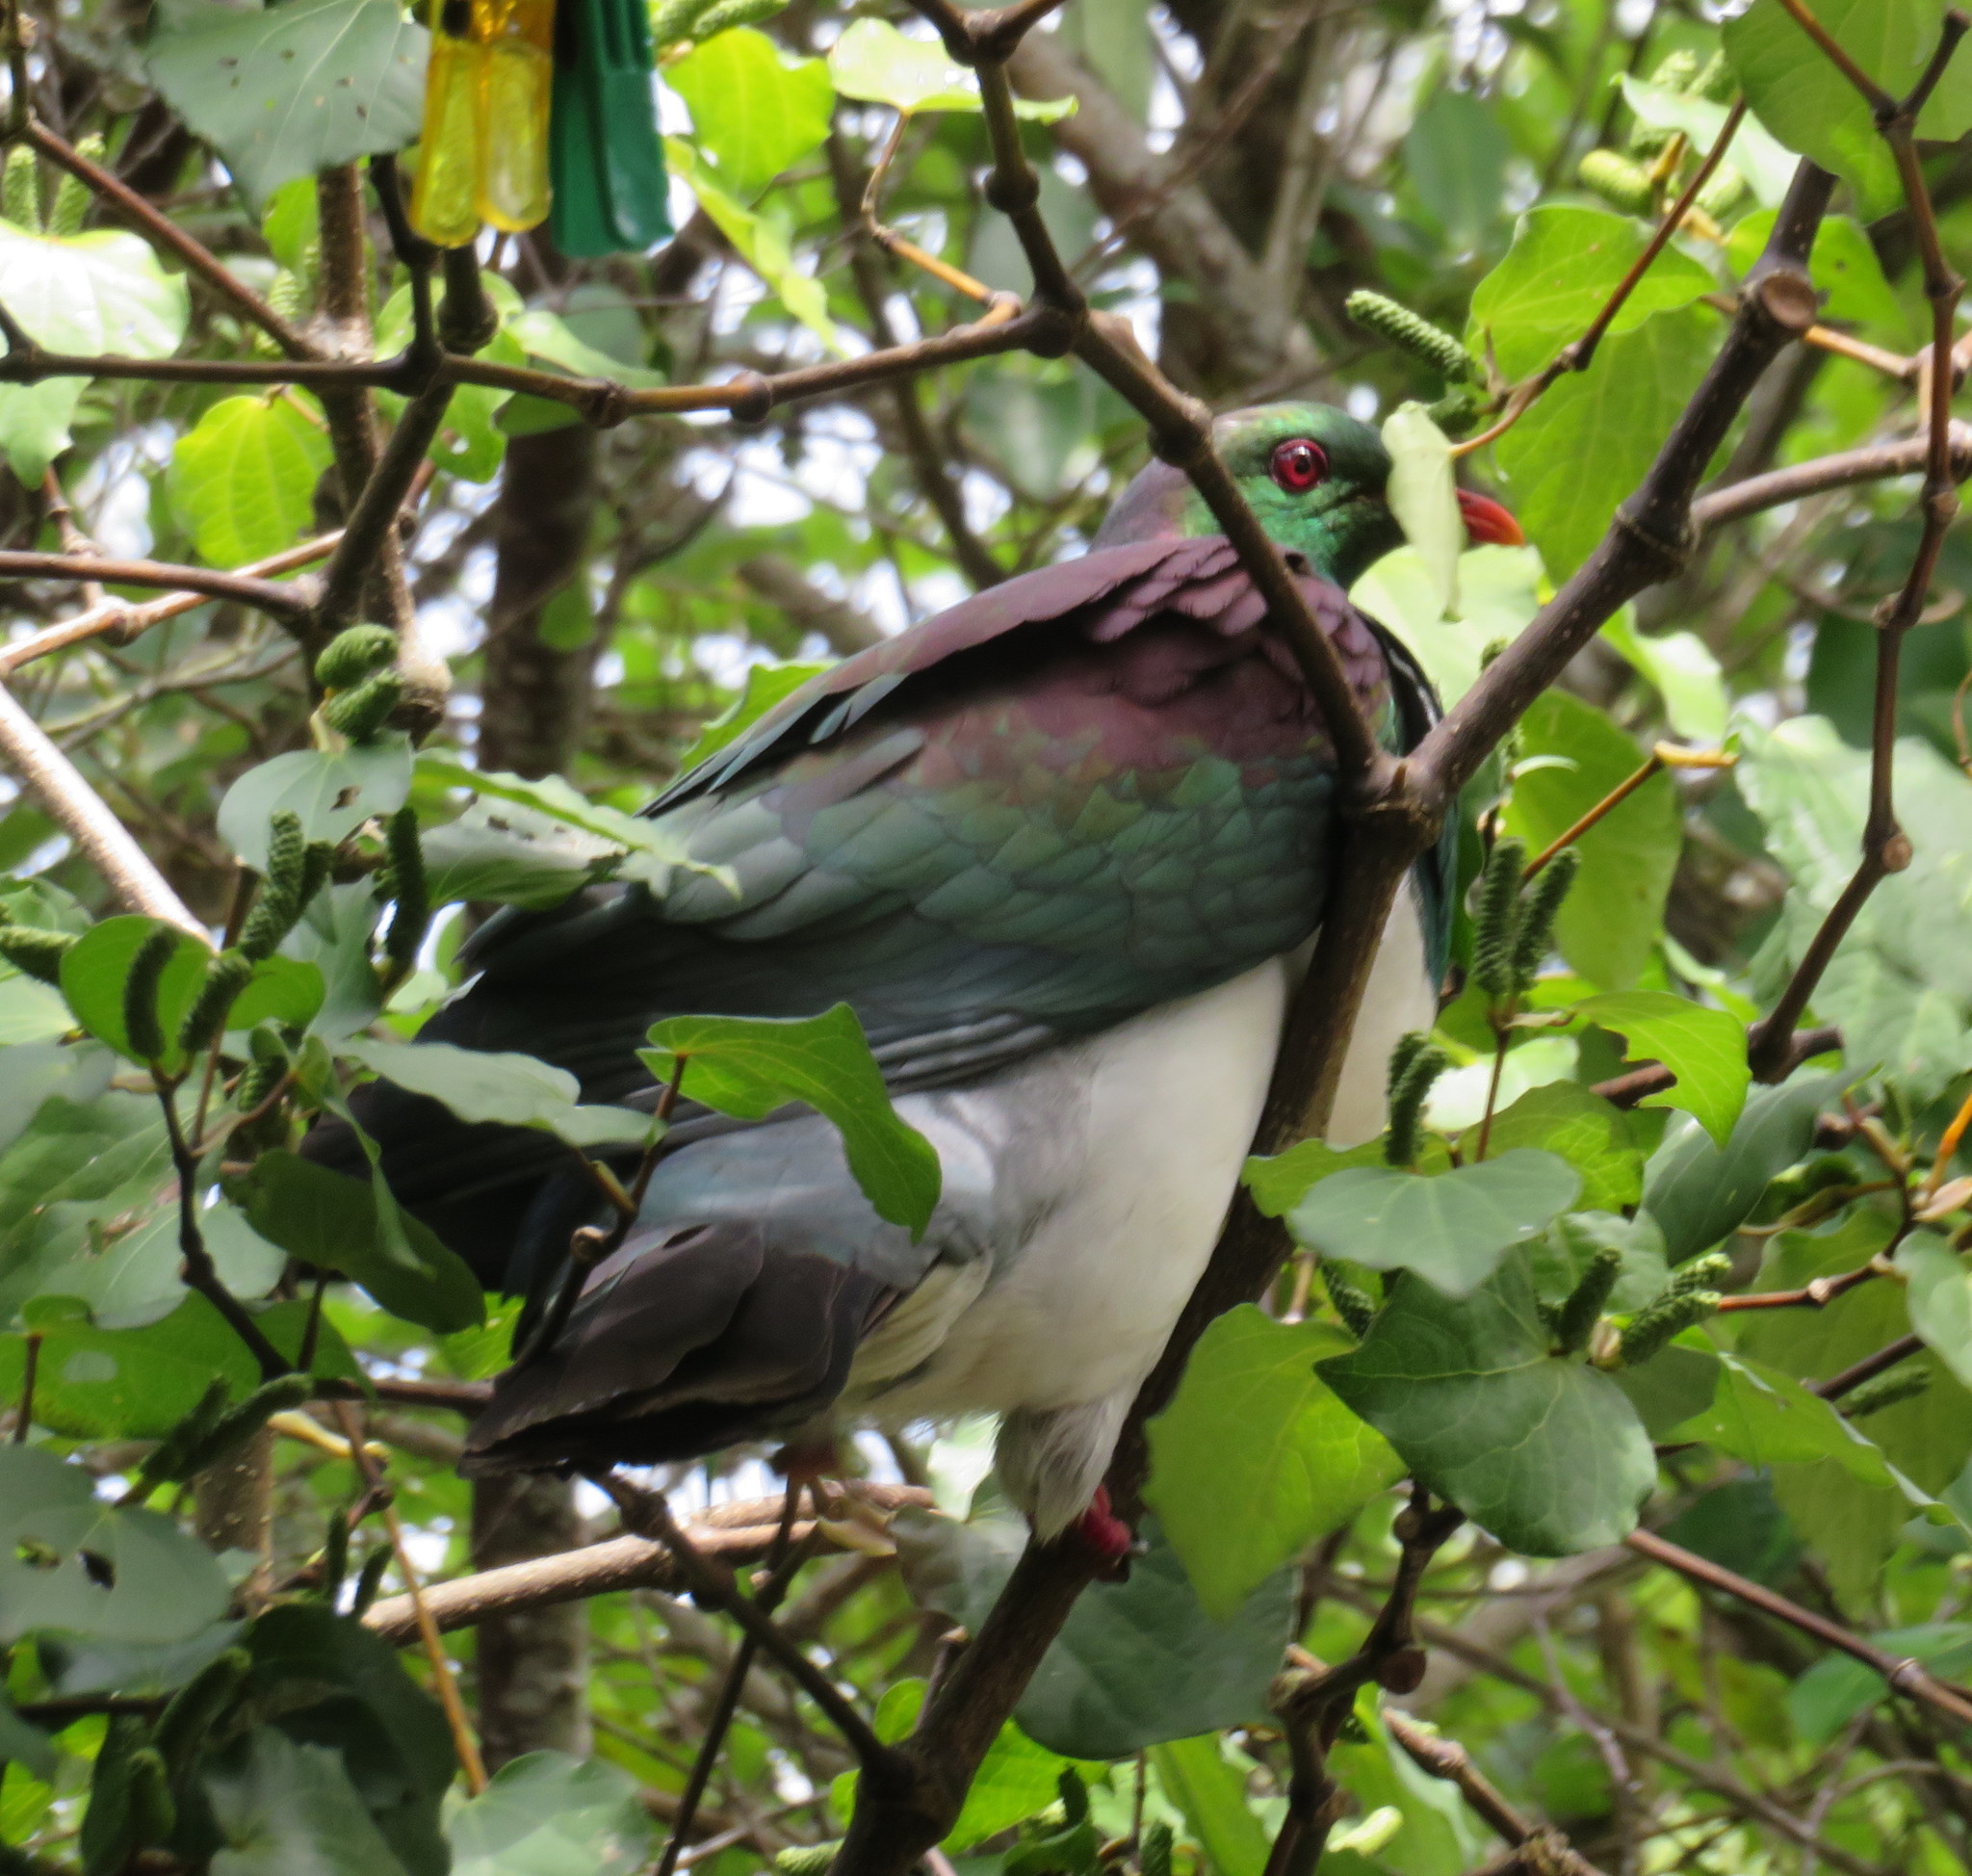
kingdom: Animalia
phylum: Chordata
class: Aves
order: Columbiformes
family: Columbidae
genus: Hemiphaga
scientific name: Hemiphaga novaeseelandiae
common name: New zealand pigeon
